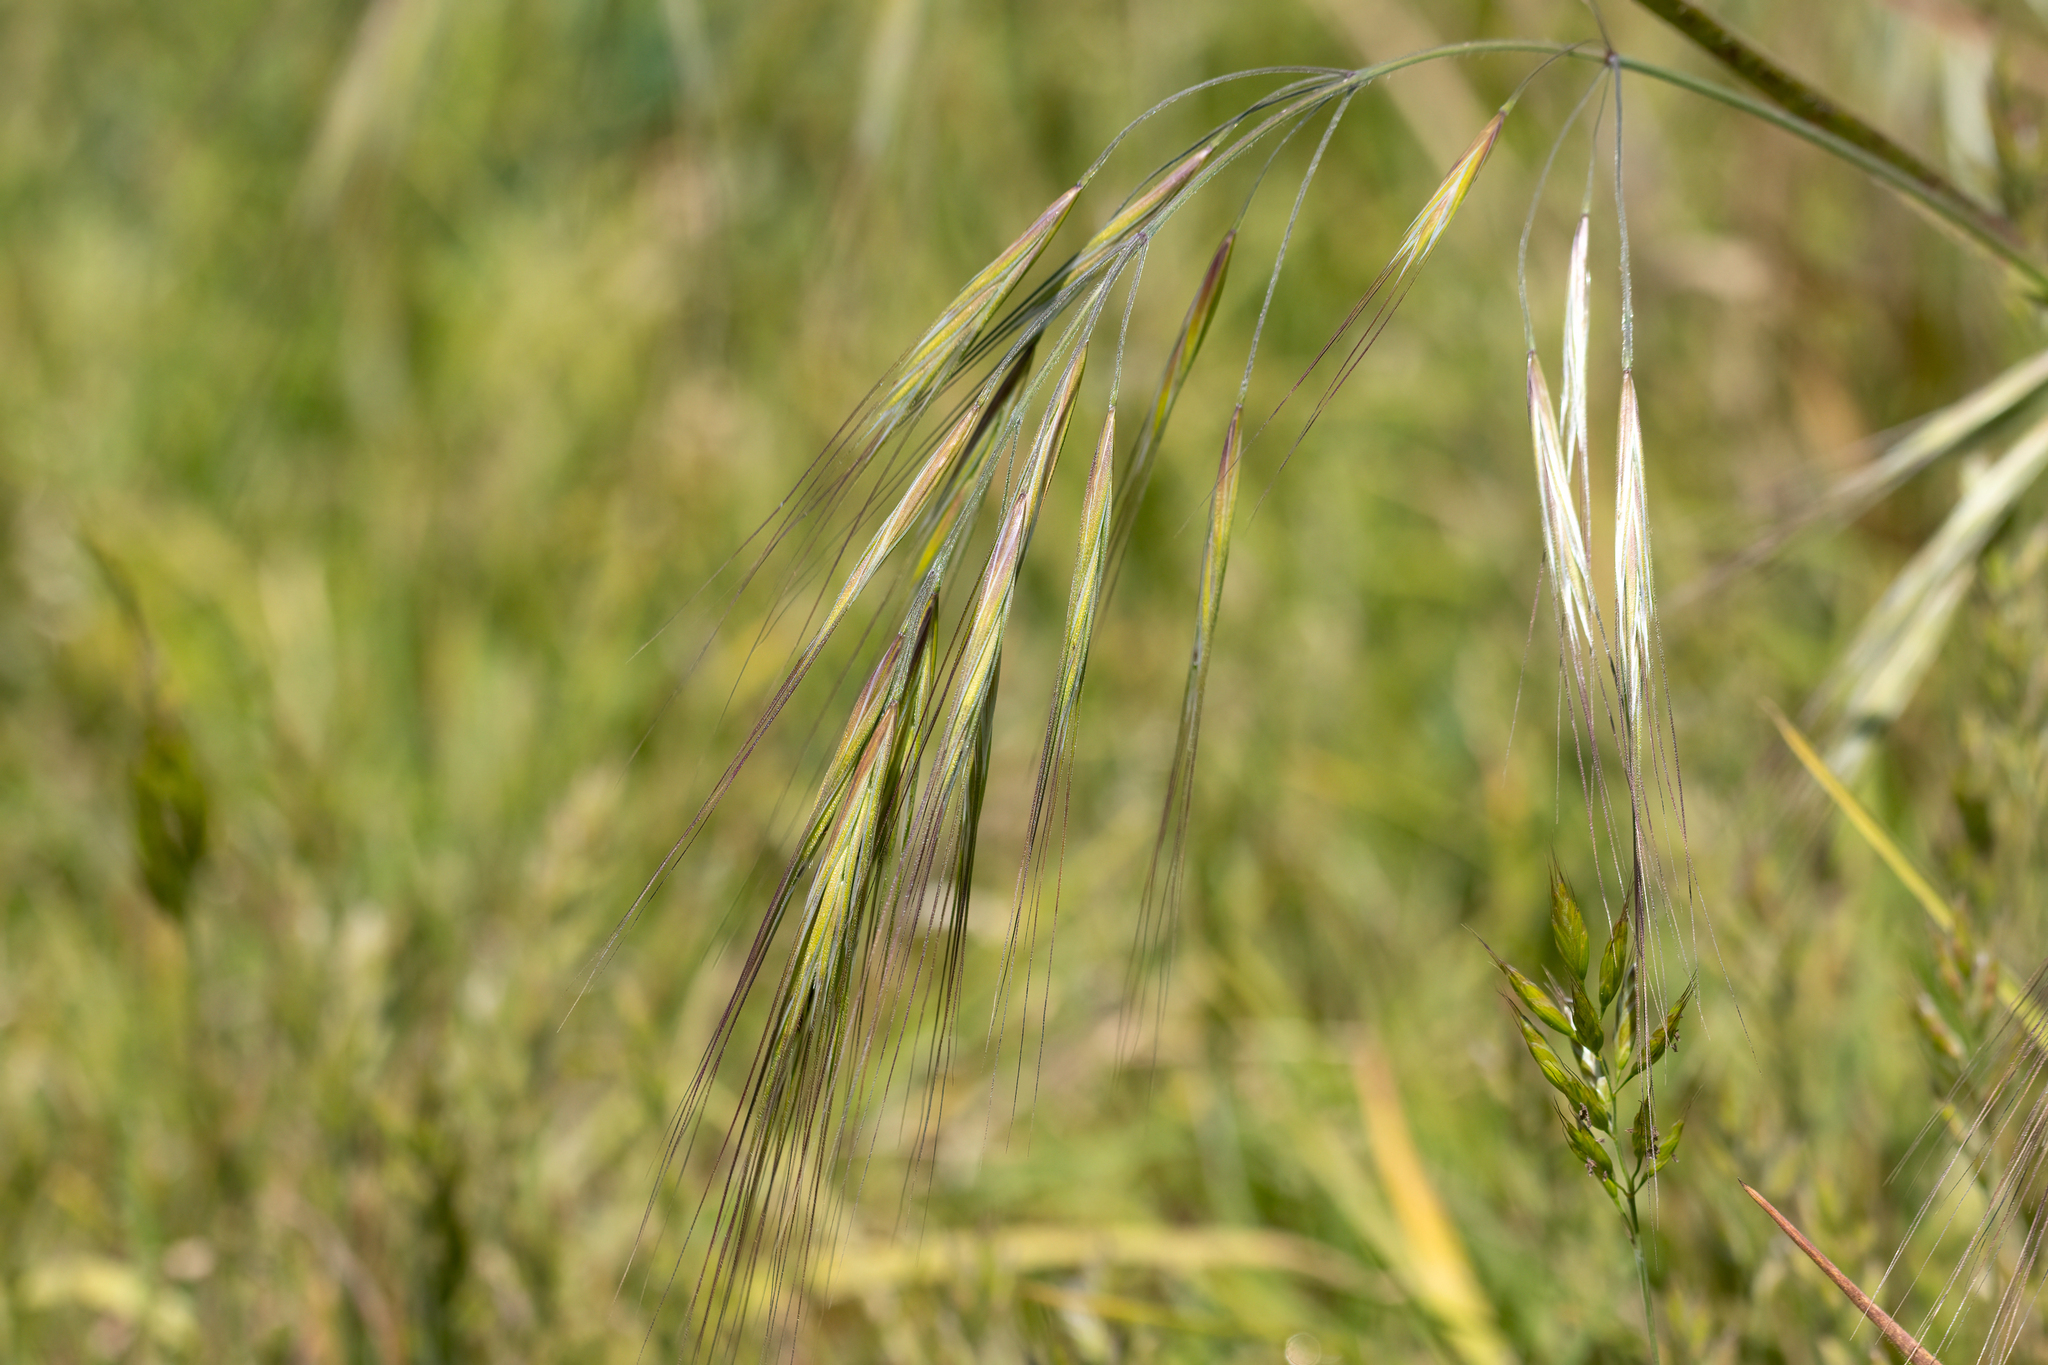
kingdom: Plantae
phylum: Tracheophyta
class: Liliopsida
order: Poales
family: Poaceae
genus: Bromus
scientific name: Bromus diandrus
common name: Ripgut brome
